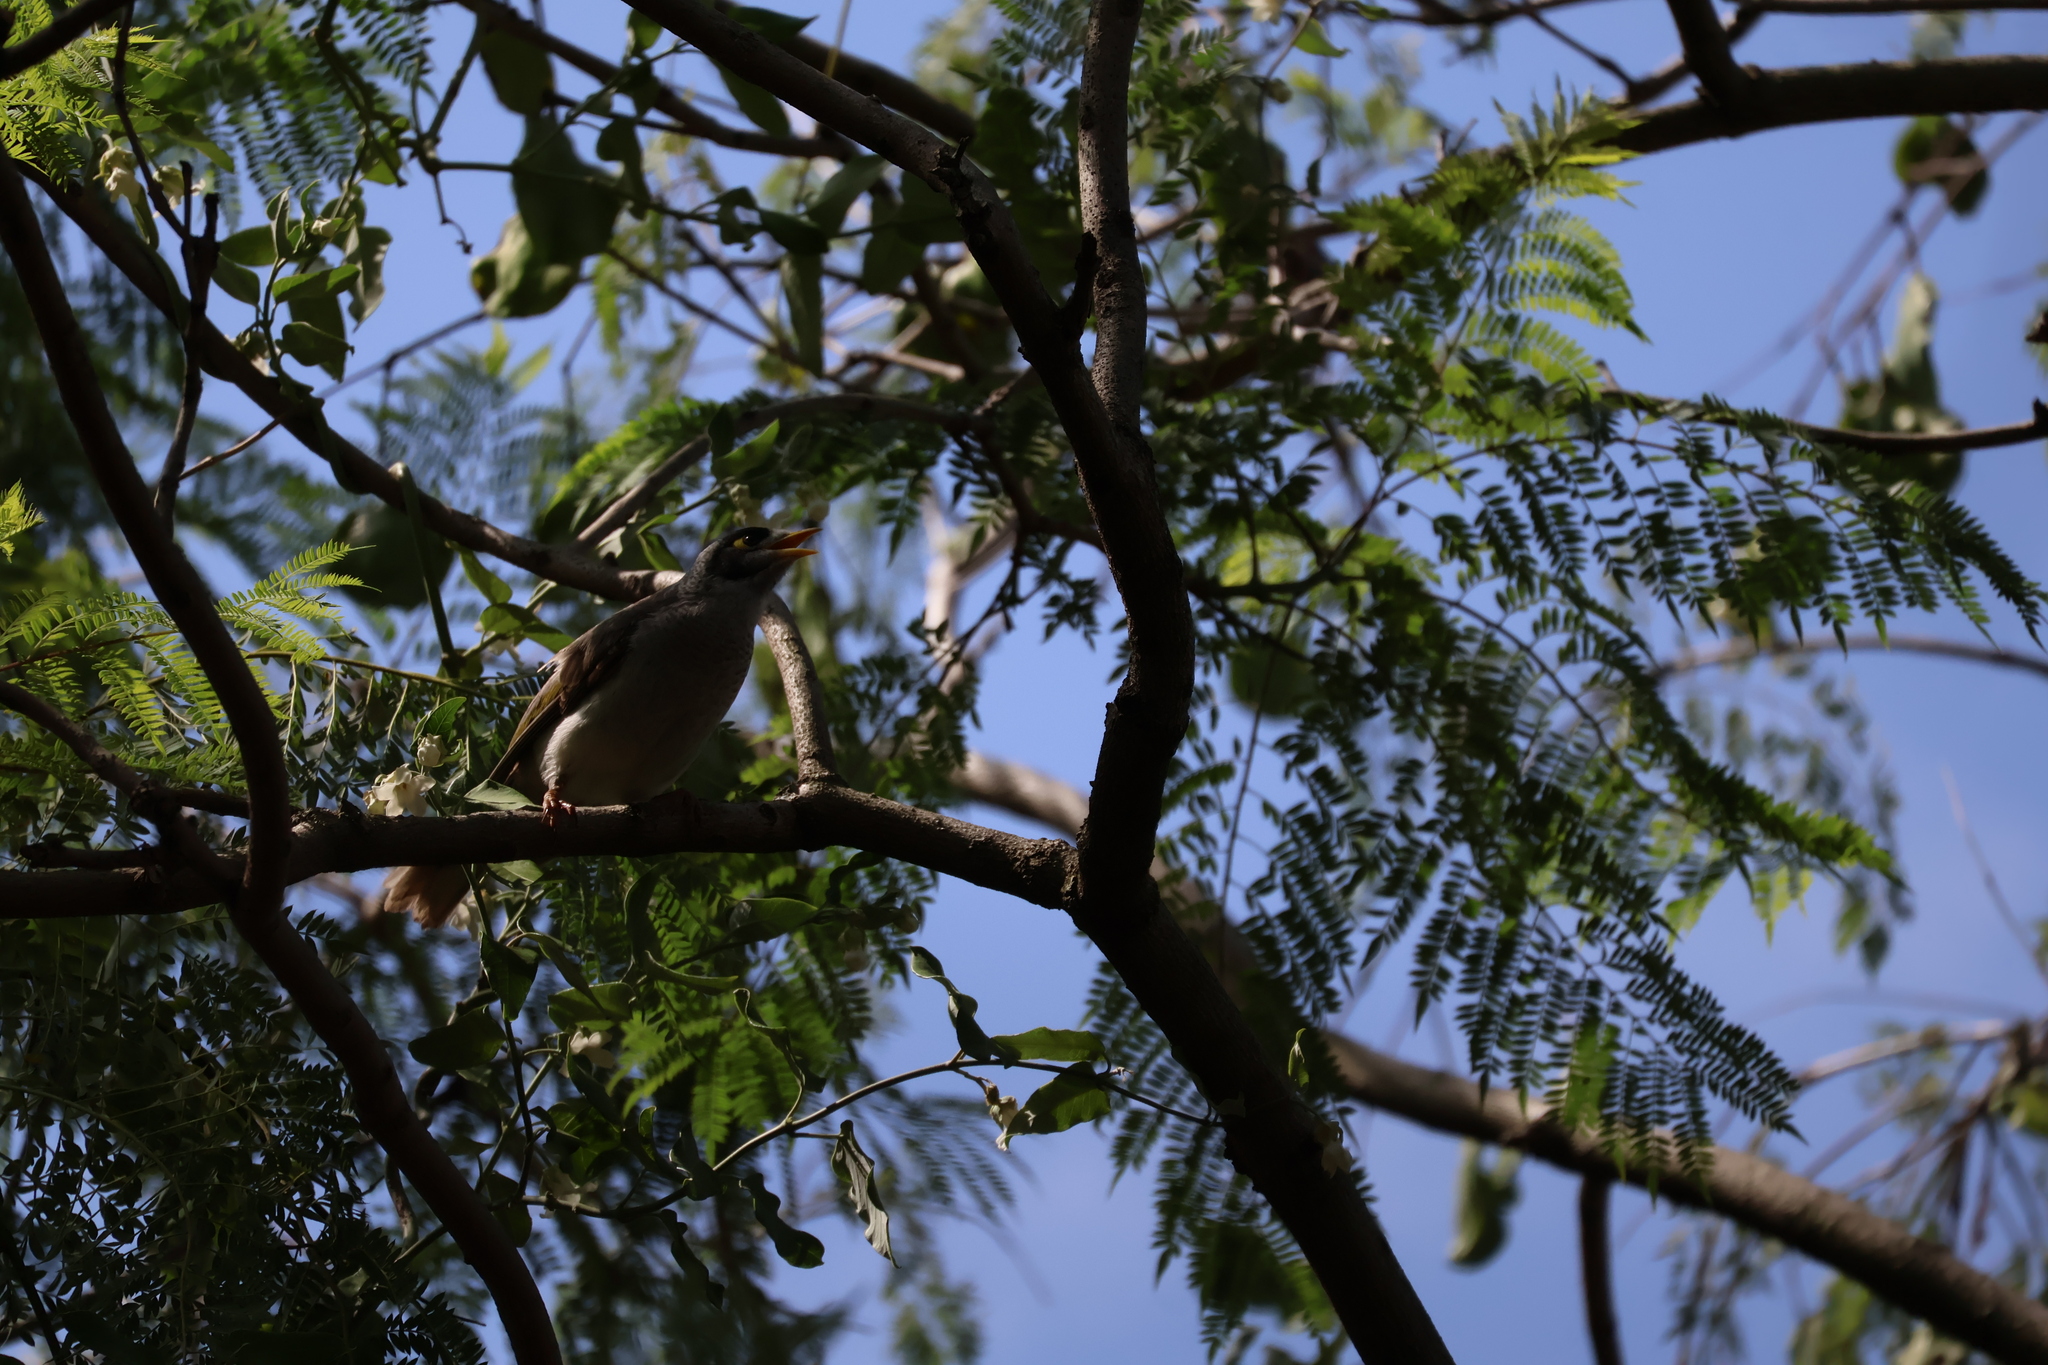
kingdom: Animalia
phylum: Chordata
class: Aves
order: Passeriformes
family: Meliphagidae
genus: Manorina
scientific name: Manorina melanocephala
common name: Noisy miner
